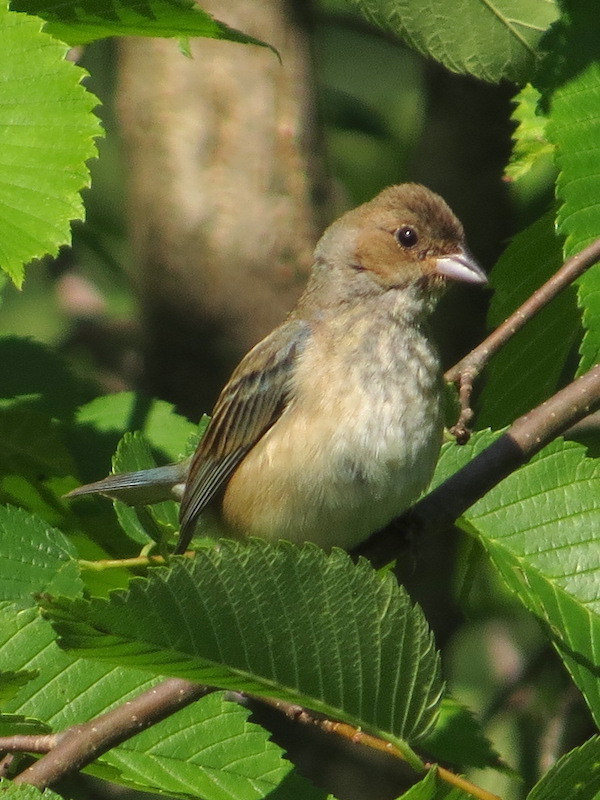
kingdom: Animalia
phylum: Chordata
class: Aves
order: Passeriformes
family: Cardinalidae
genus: Passerina
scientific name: Passerina cyanea
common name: Indigo bunting
